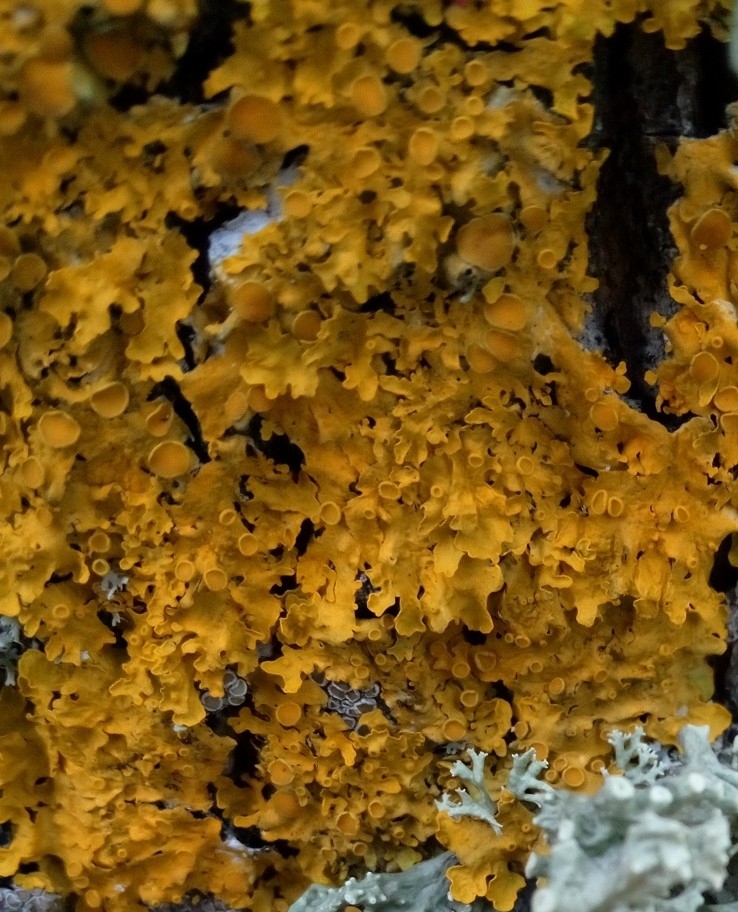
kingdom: Fungi
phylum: Ascomycota
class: Lecanoromycetes
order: Teloschistales
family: Teloschistaceae
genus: Xanthoria
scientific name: Xanthoria parietina
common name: Common orange lichen
